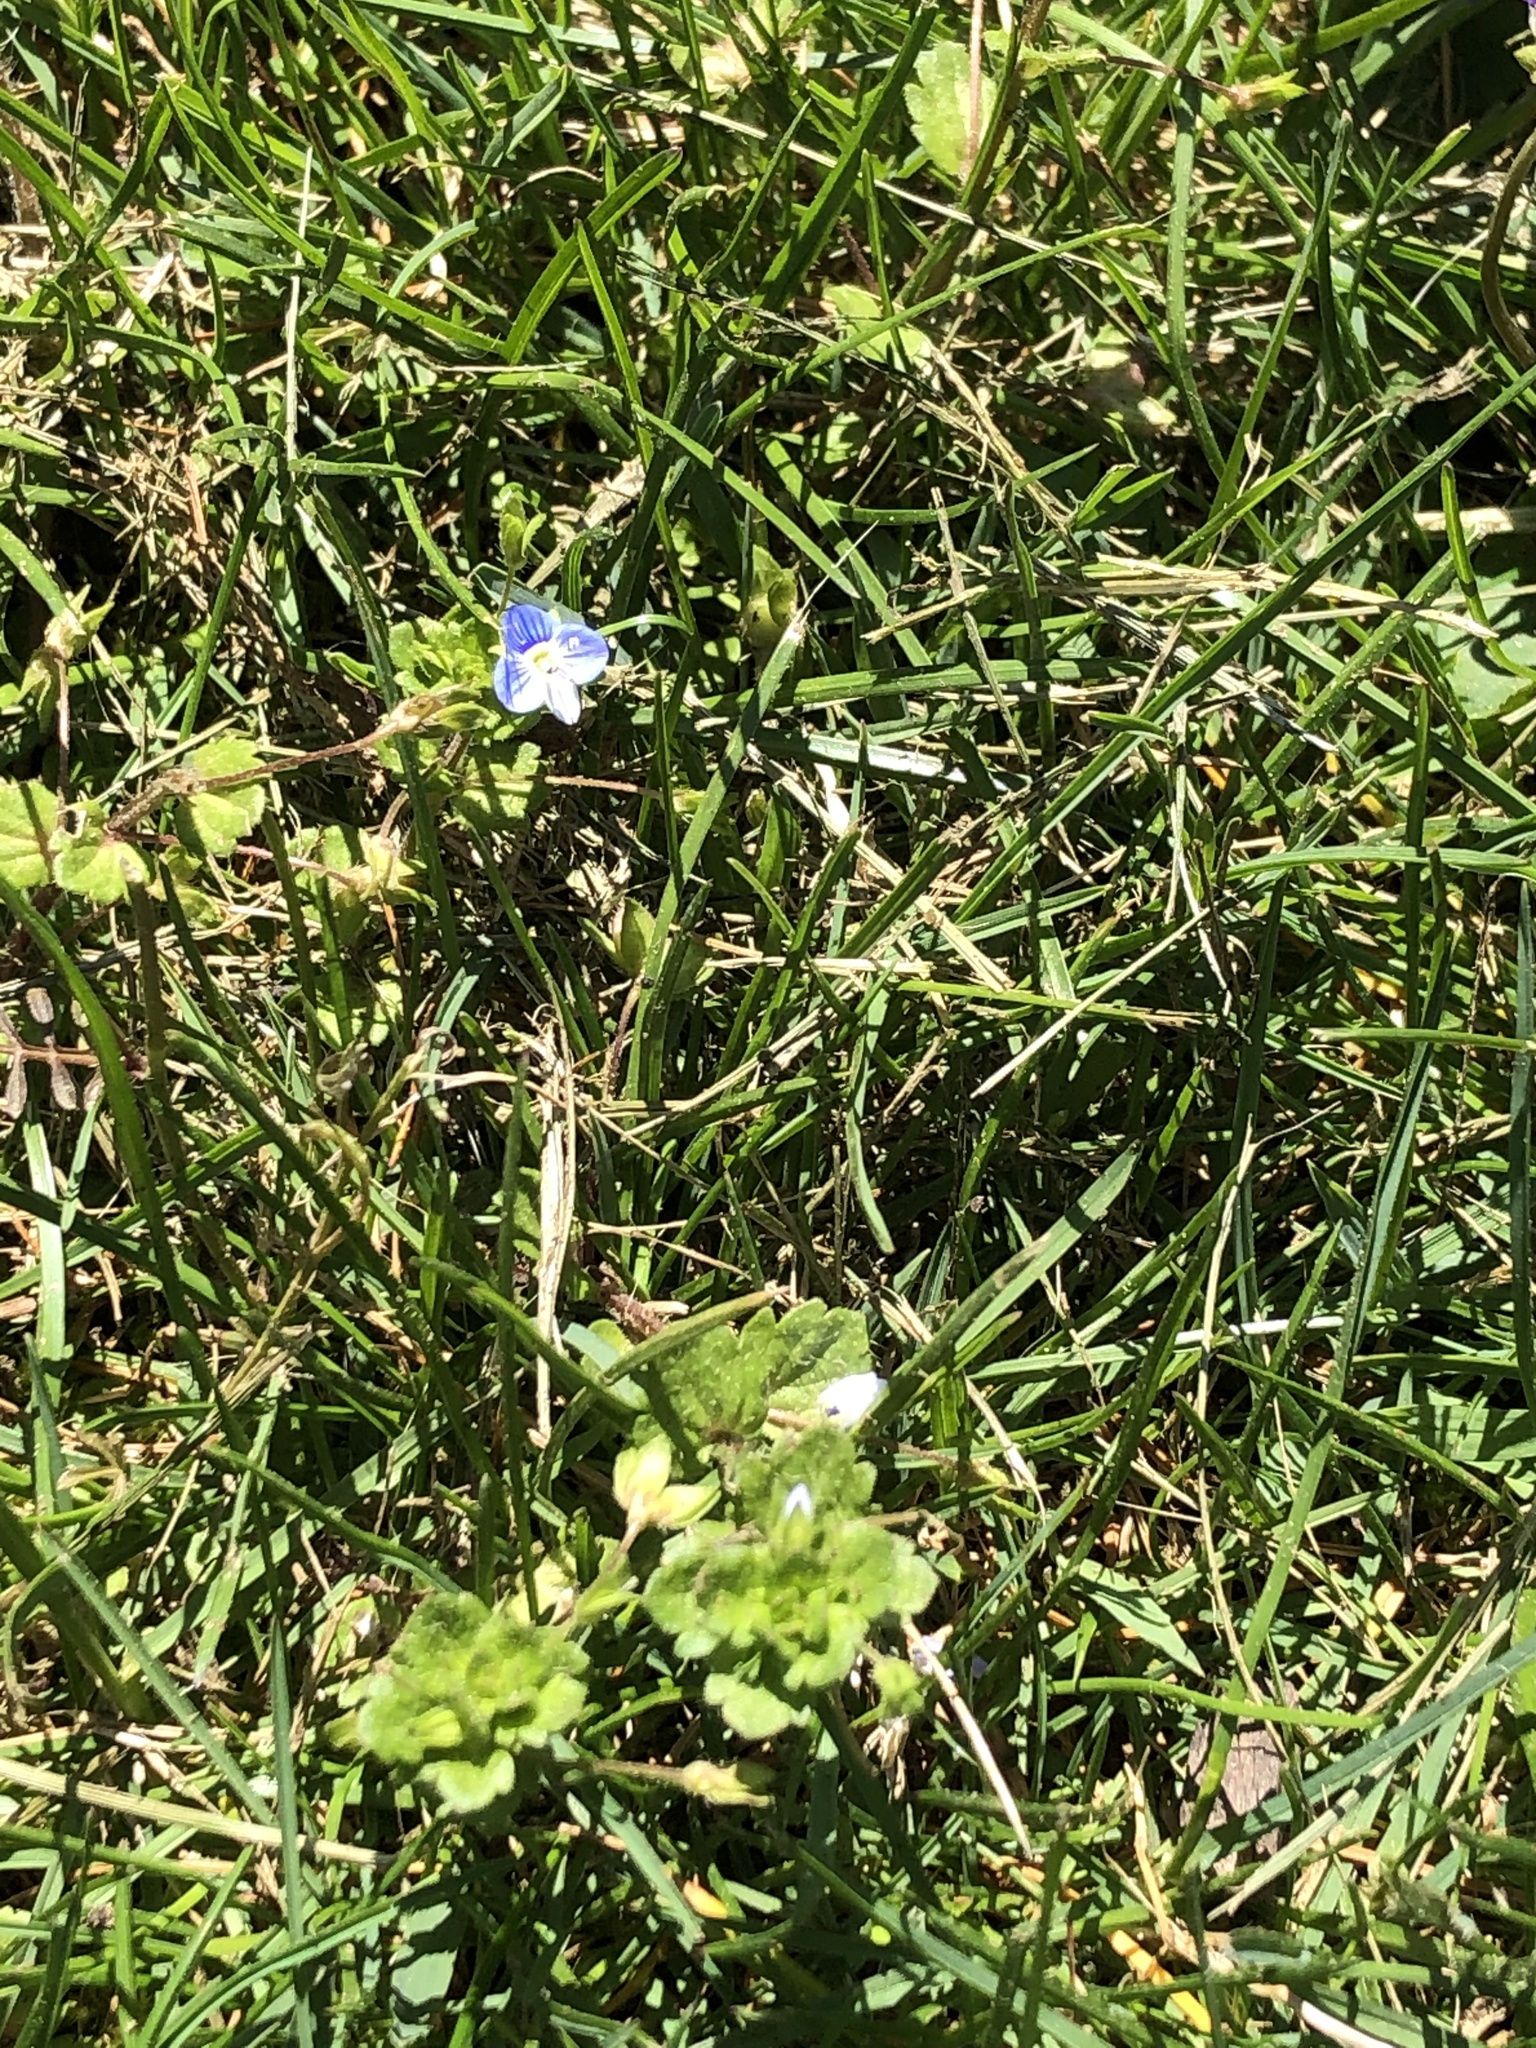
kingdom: Plantae
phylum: Tracheophyta
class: Magnoliopsida
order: Lamiales
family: Plantaginaceae
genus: Veronica
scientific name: Veronica persica
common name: Common field-speedwell
